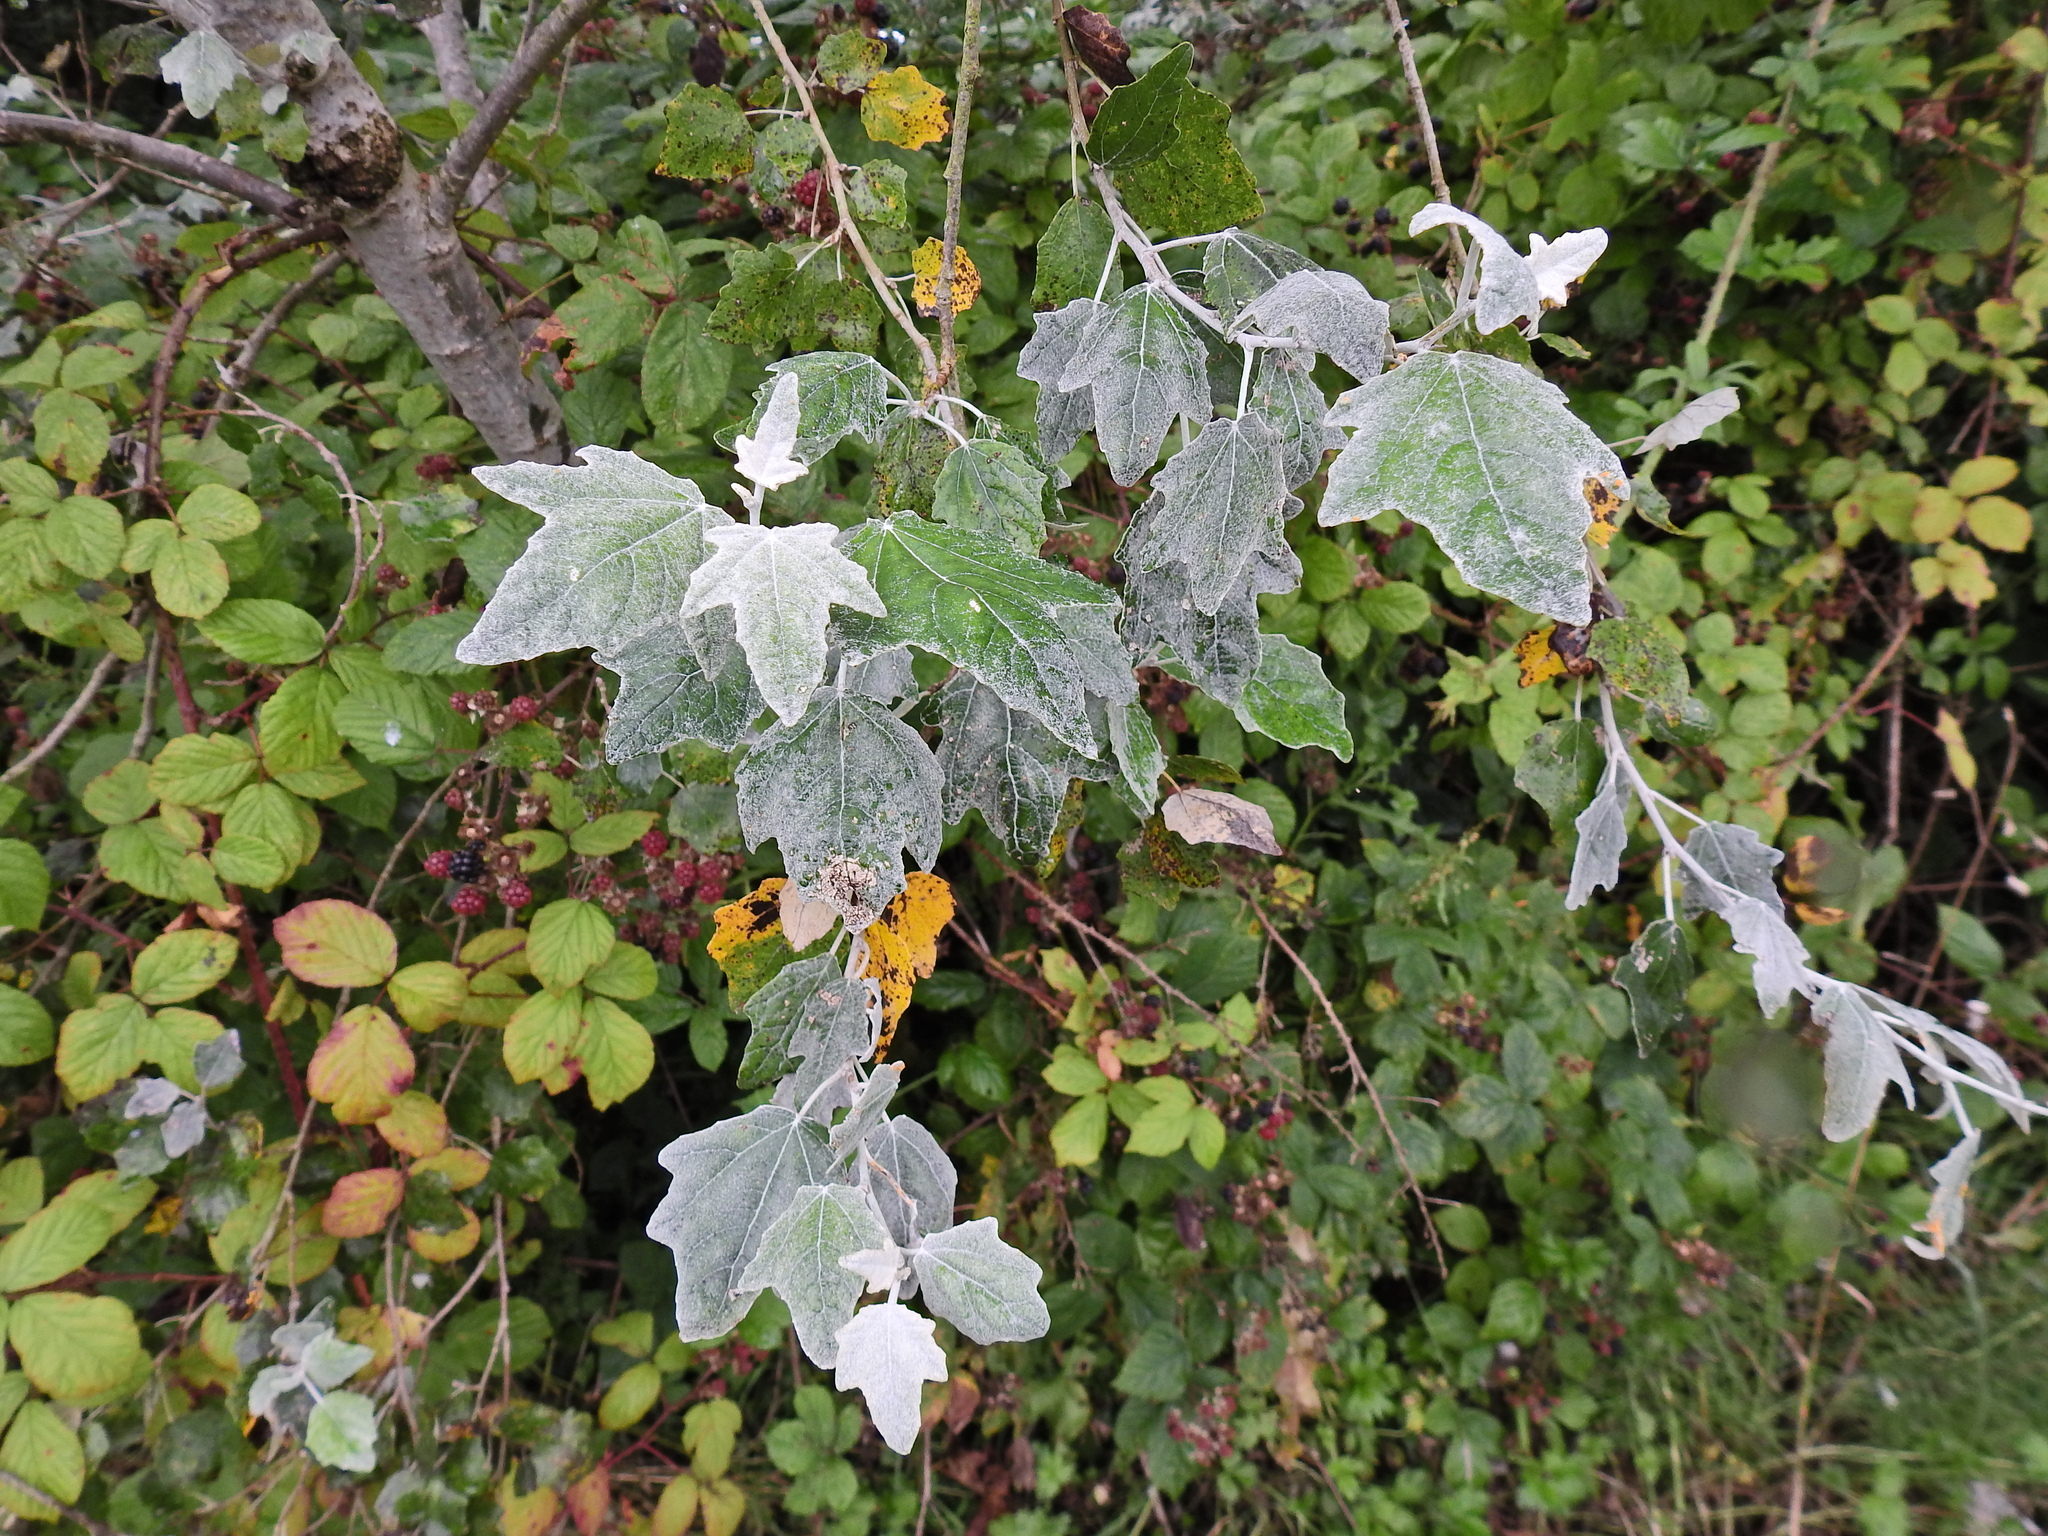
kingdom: Plantae
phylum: Tracheophyta
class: Magnoliopsida
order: Malpighiales
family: Salicaceae
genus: Populus
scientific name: Populus alba
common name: White poplar
